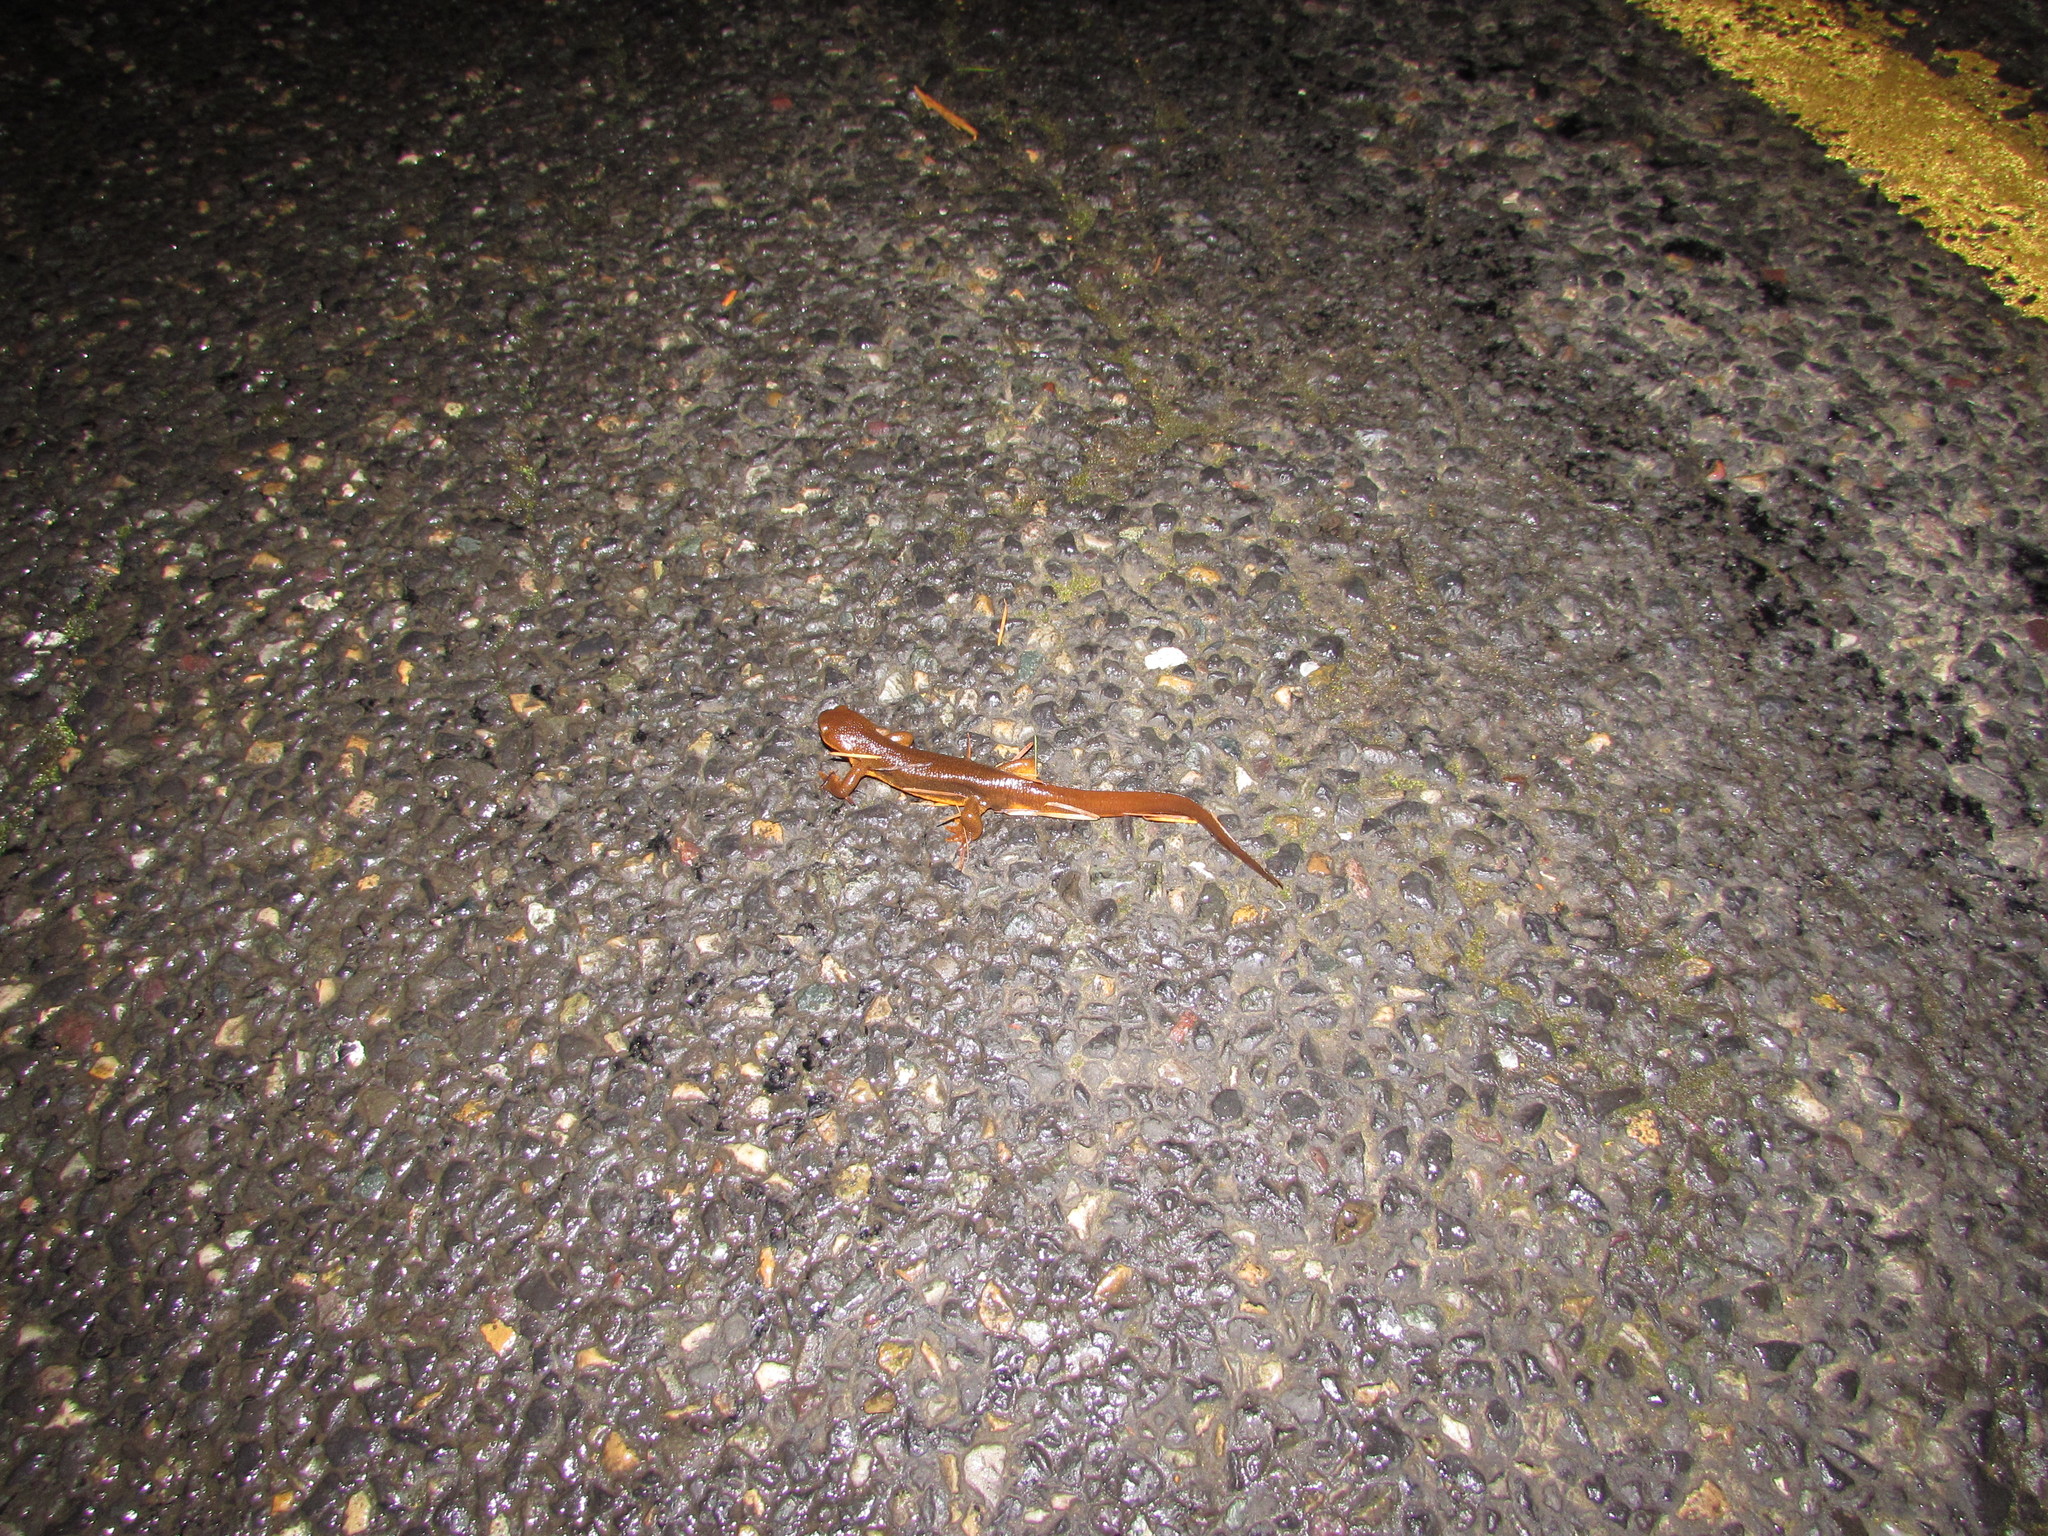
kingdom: Animalia
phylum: Chordata
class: Amphibia
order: Caudata
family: Salamandridae
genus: Taricha
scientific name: Taricha granulosa
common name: Roughskin newt
